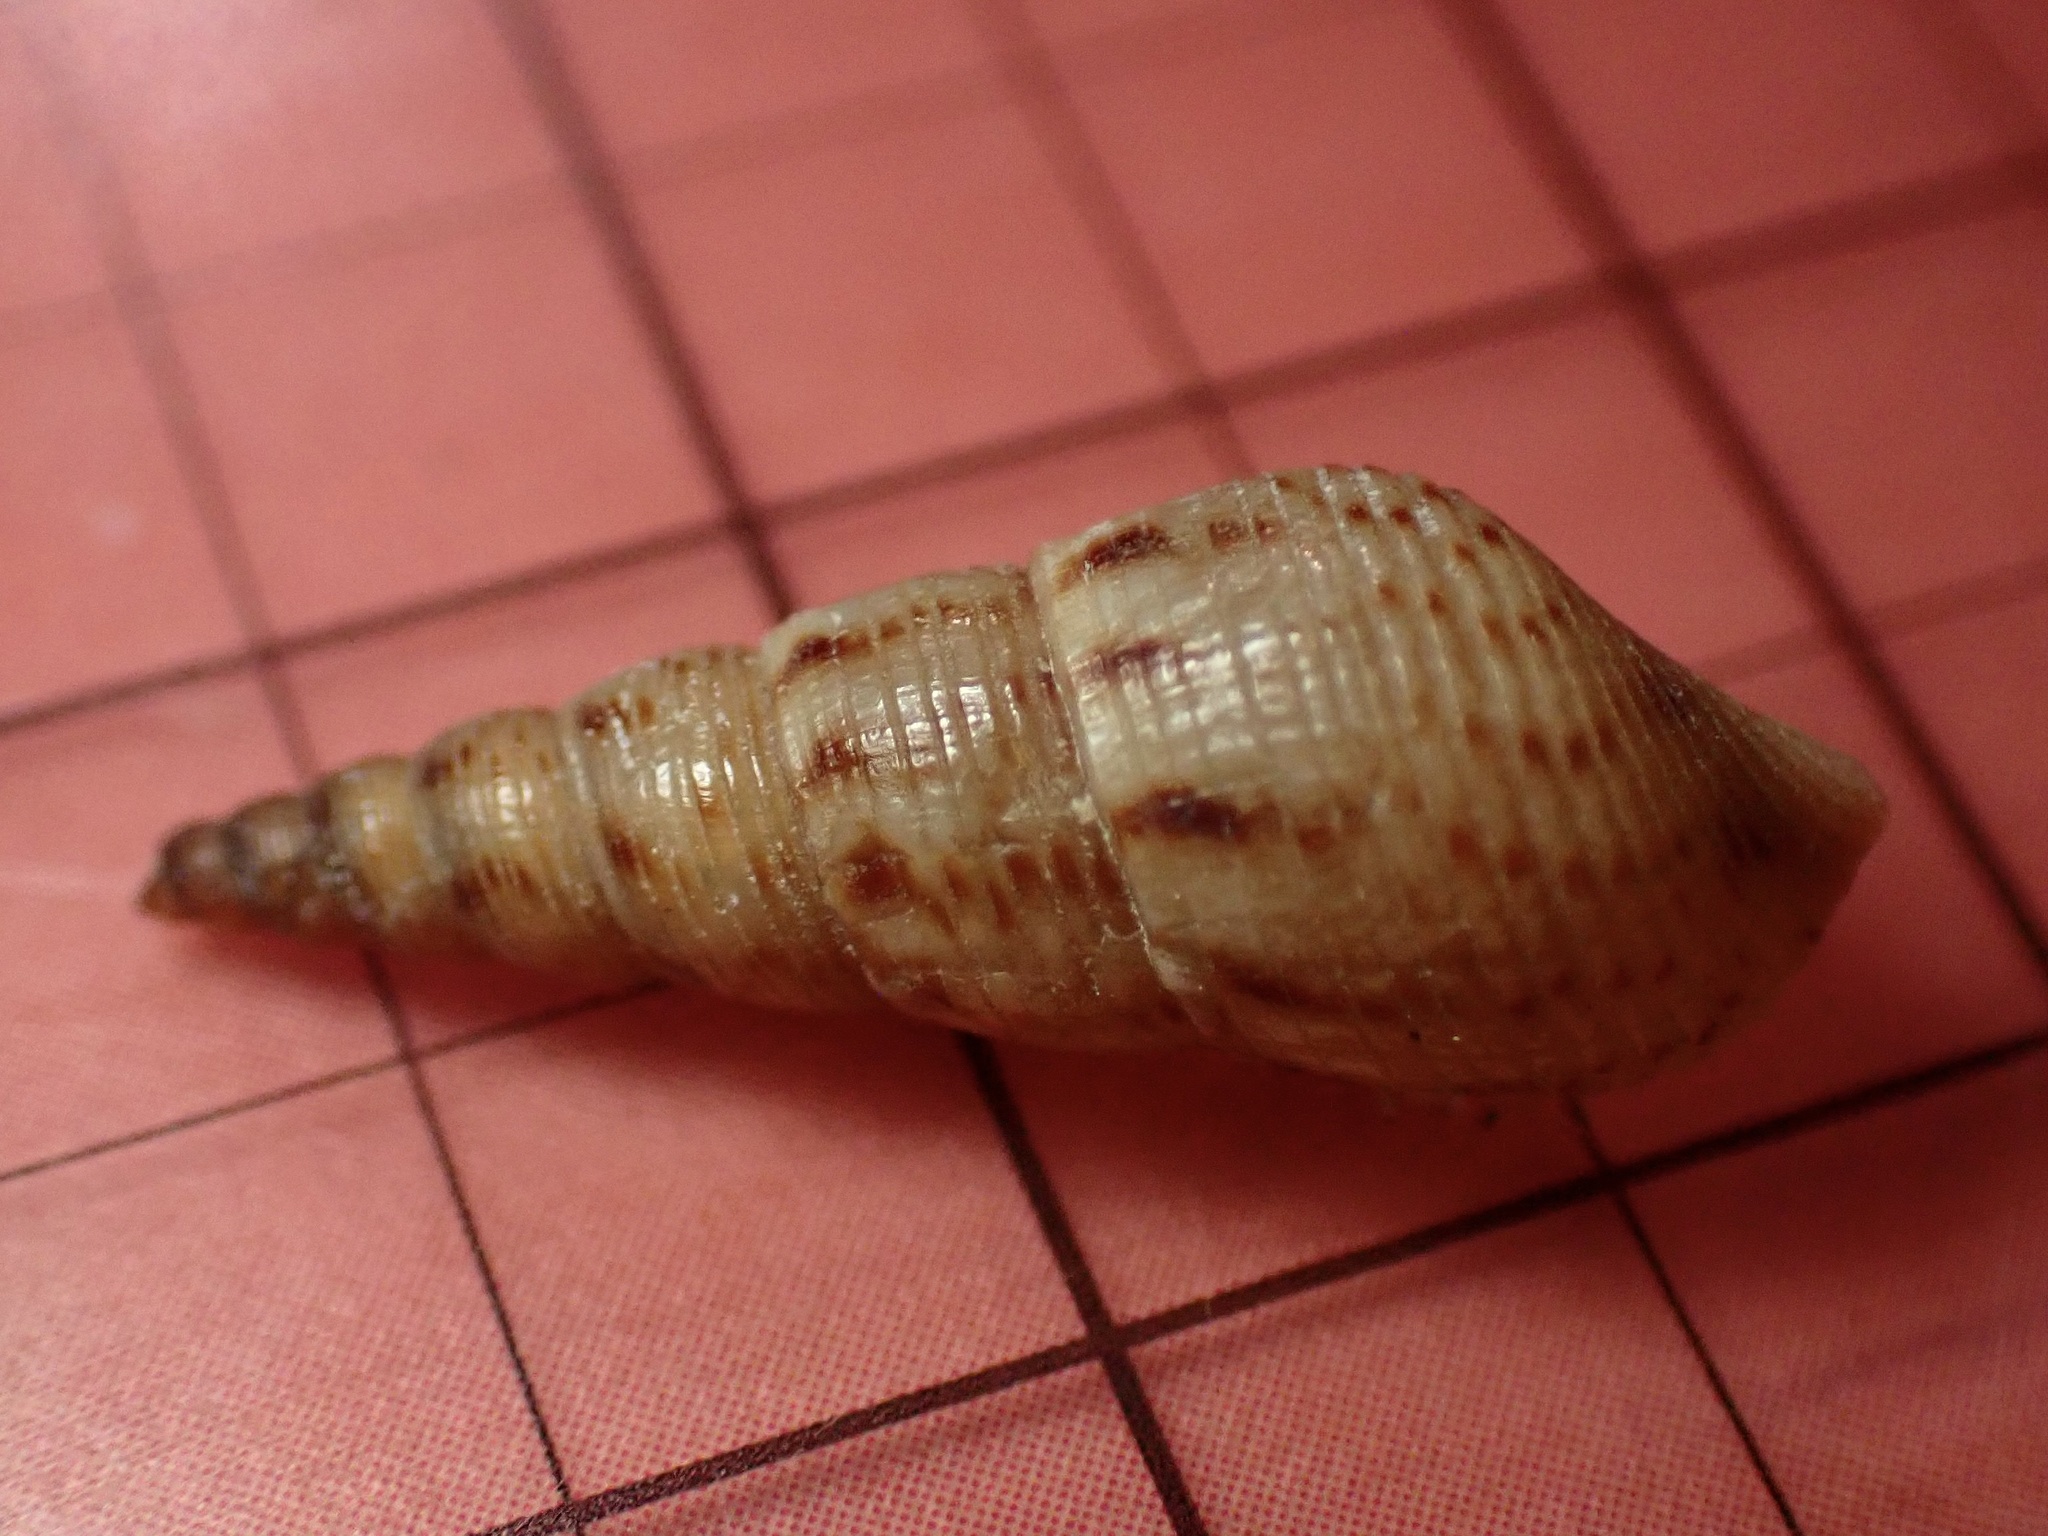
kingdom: Animalia
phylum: Mollusca
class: Gastropoda
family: Thiaridae
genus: Melanoides
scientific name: Melanoides tuberculata
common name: Red-rim melania
